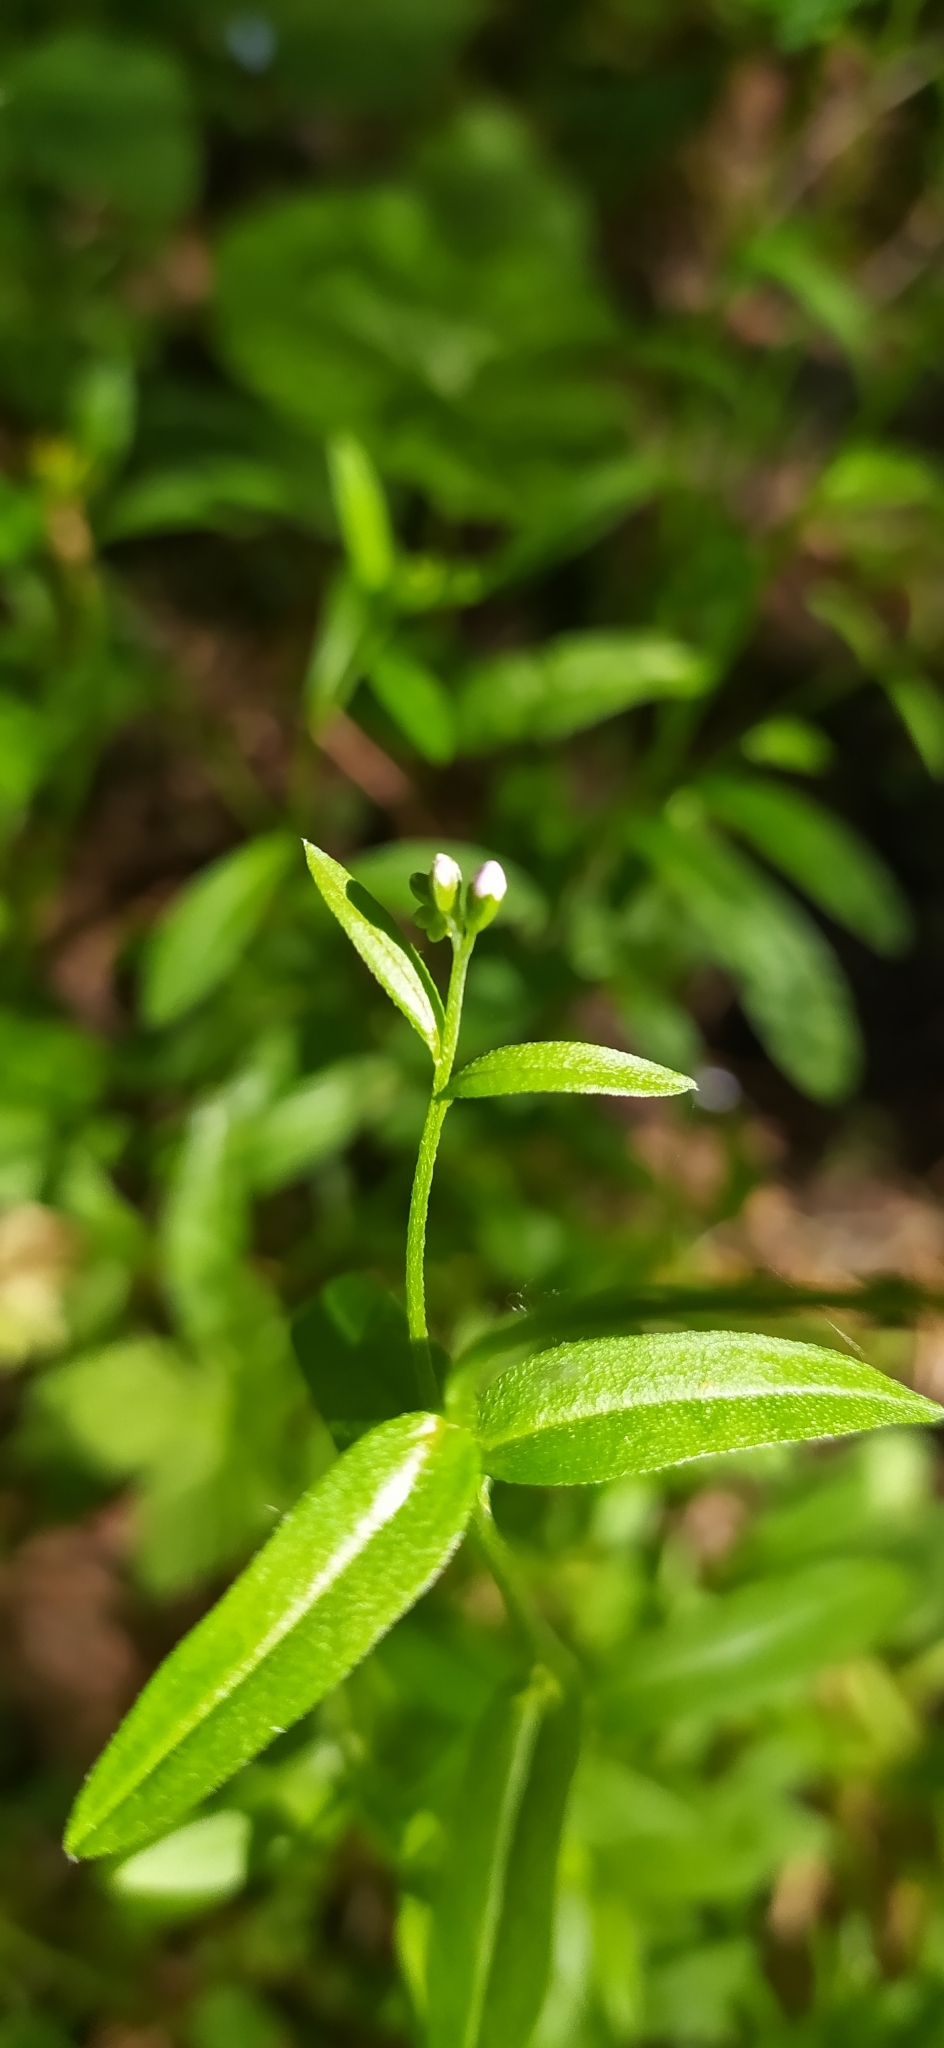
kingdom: Plantae
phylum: Tracheophyta
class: Magnoliopsida
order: Boraginales
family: Boraginaceae
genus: Myosotis
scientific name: Myosotis scorpioides
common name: Water forget-me-not
